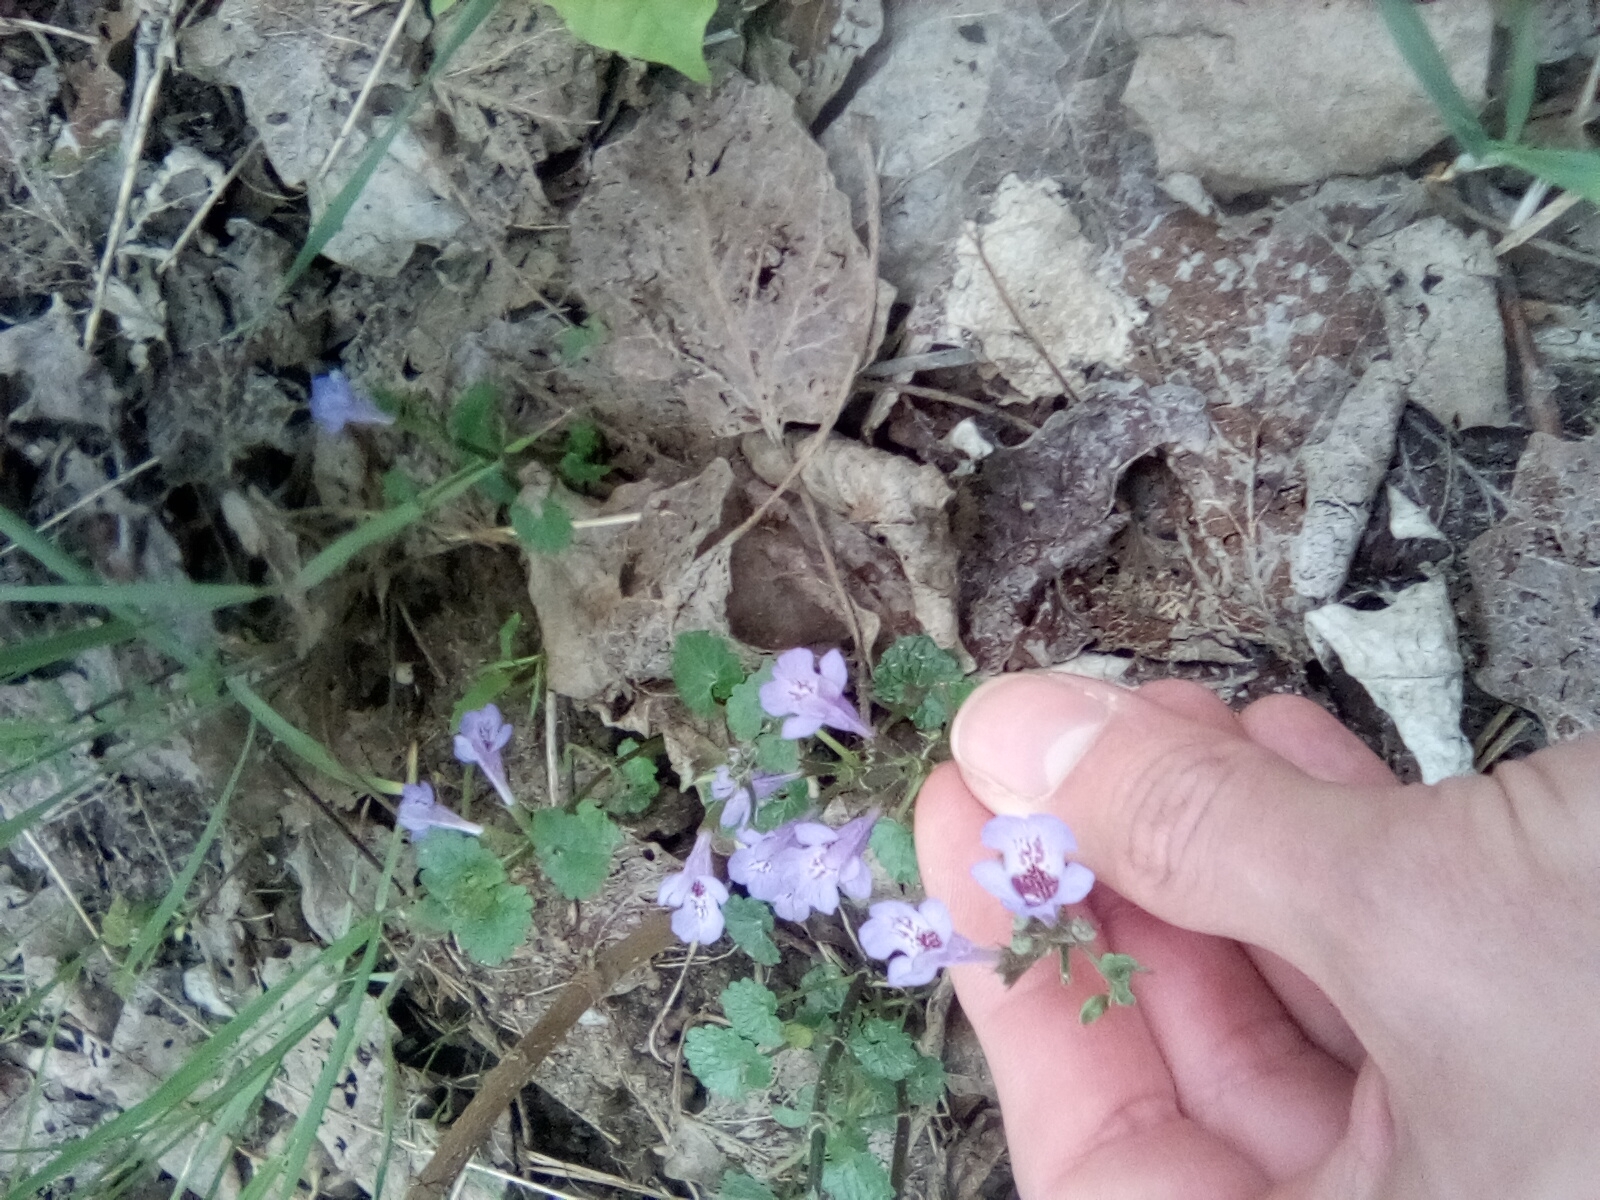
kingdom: Plantae
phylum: Tracheophyta
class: Magnoliopsida
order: Lamiales
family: Lamiaceae
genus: Glechoma
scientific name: Glechoma hederacea
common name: Ground ivy
